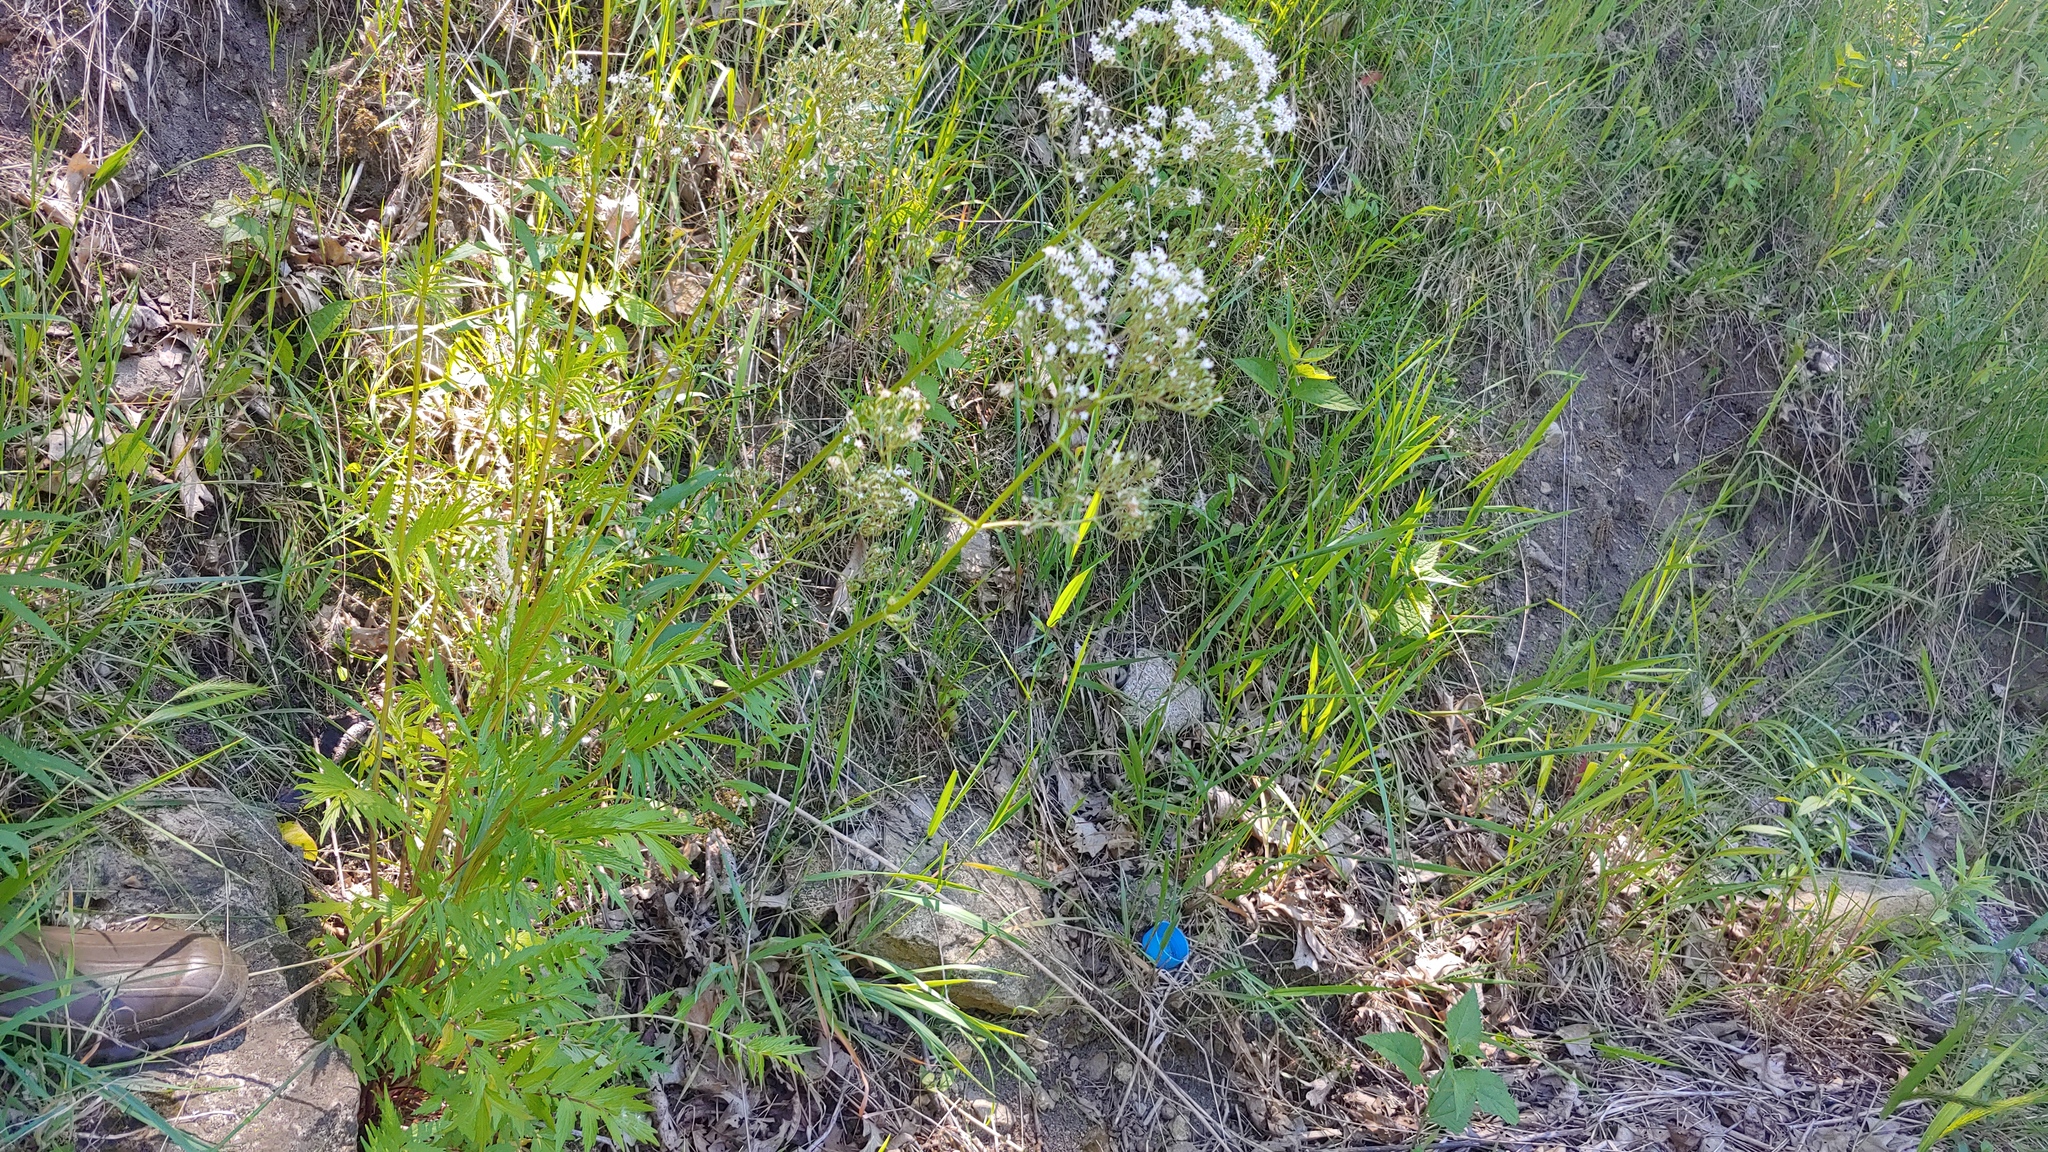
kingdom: Plantae
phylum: Tracheophyta
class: Magnoliopsida
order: Dipsacales
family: Caprifoliaceae
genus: Valeriana
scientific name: Valeriana officinalis
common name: Common valerian
